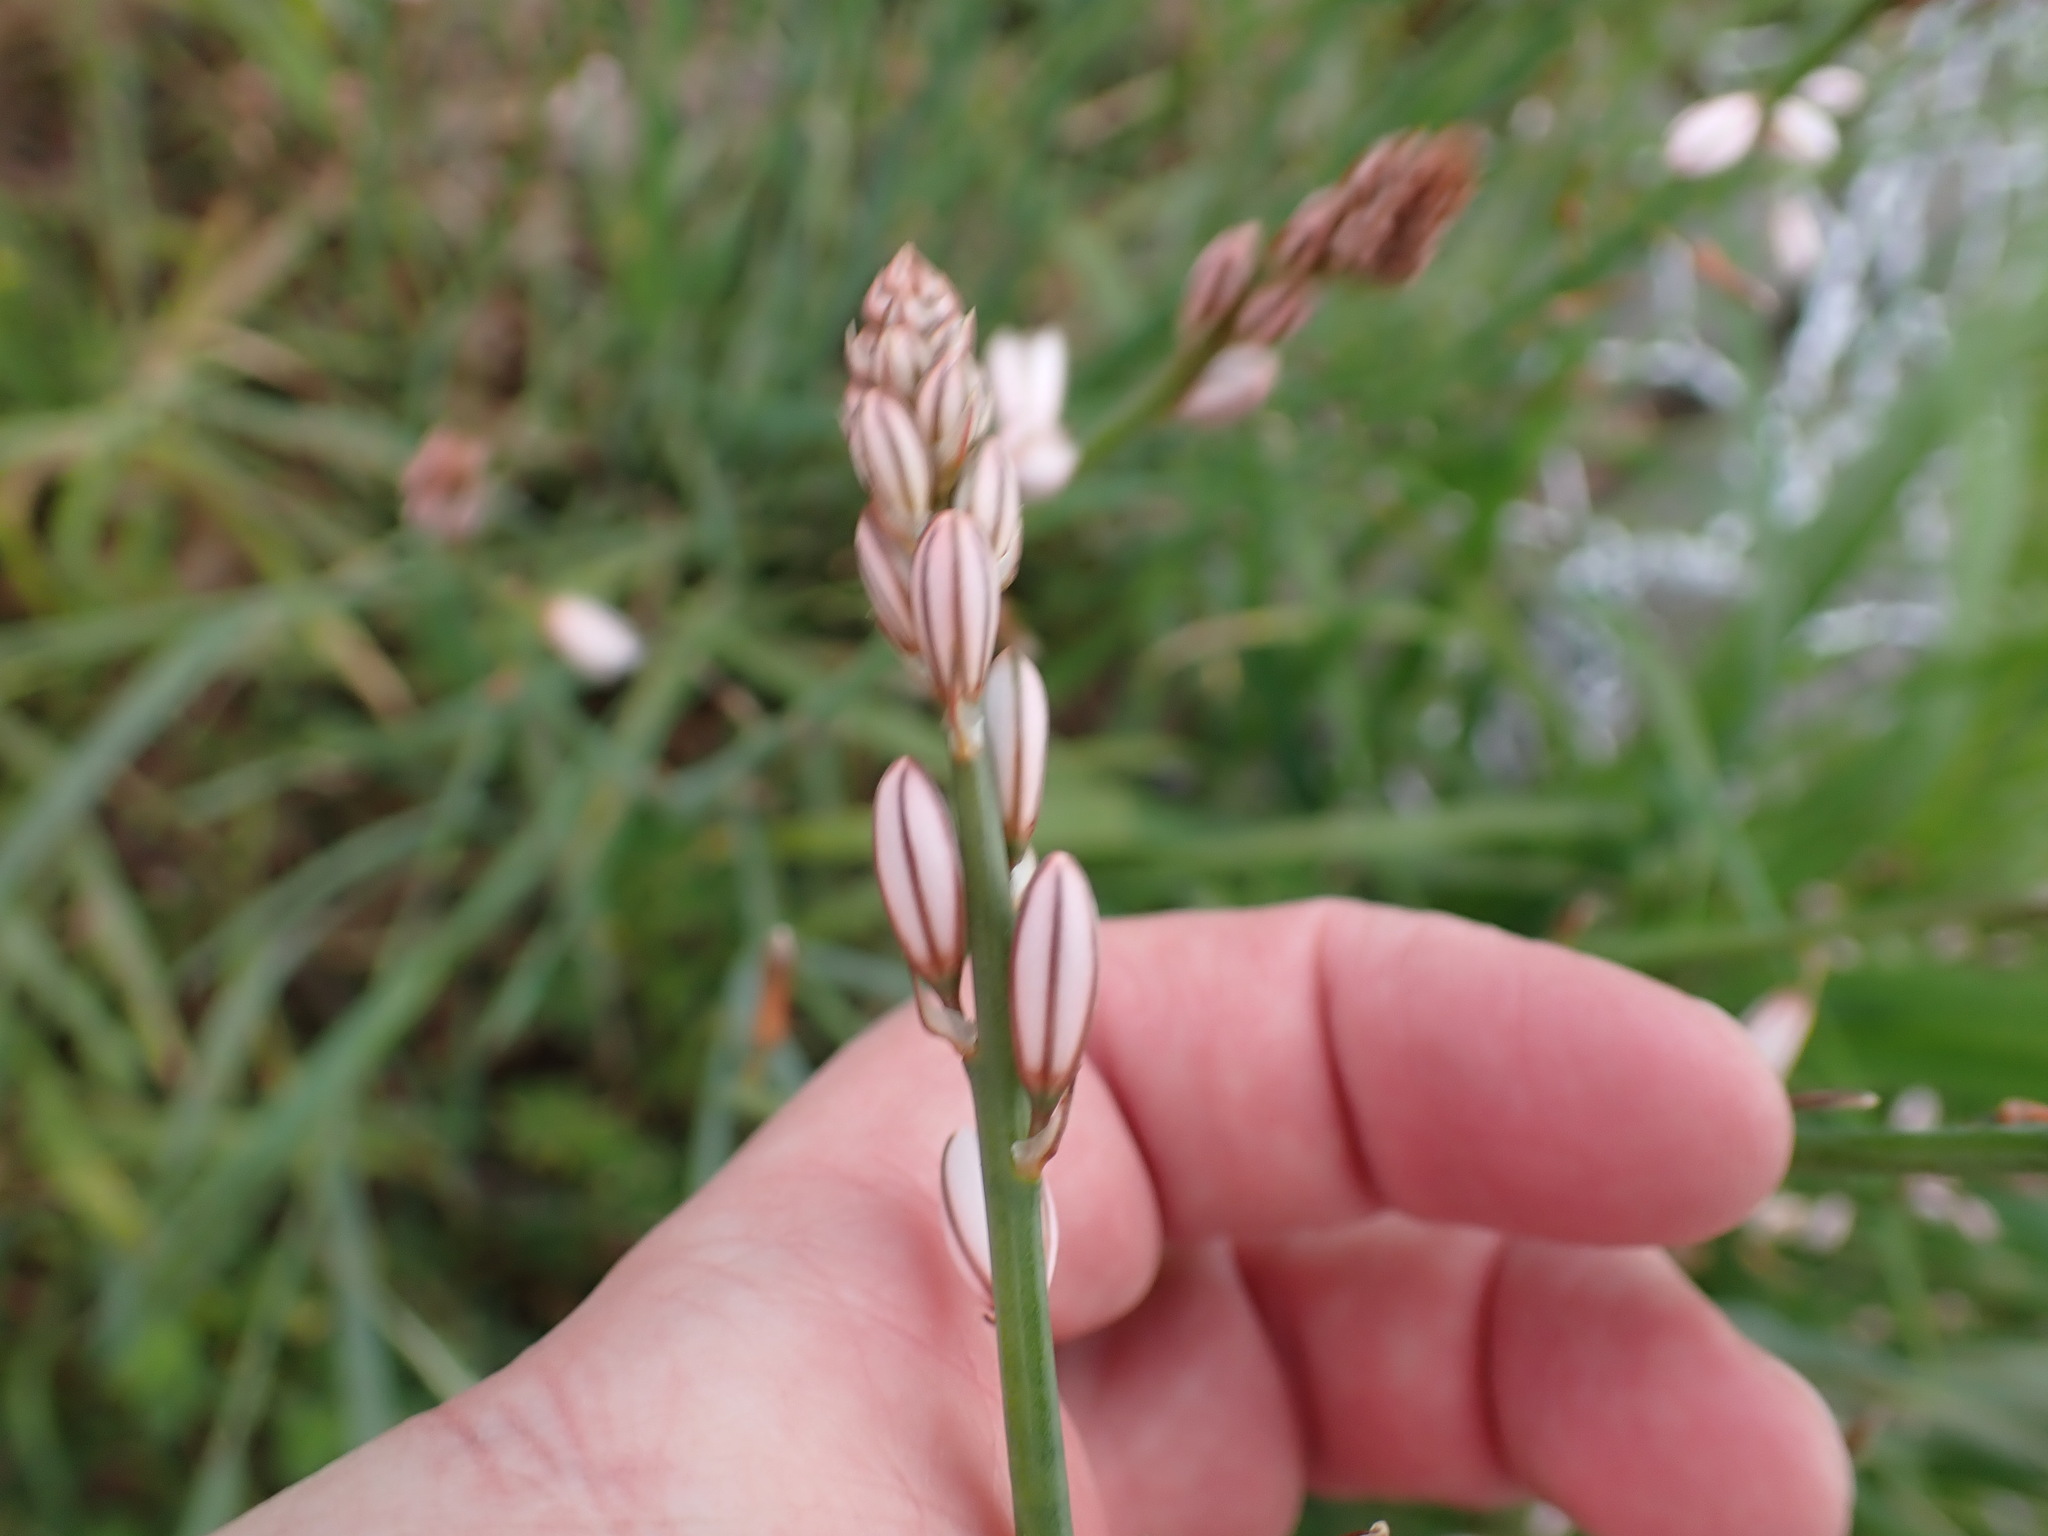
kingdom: Plantae
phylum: Tracheophyta
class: Liliopsida
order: Asparagales
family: Asphodelaceae
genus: Asphodelus
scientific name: Asphodelus fistulosus
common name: Onionweed
